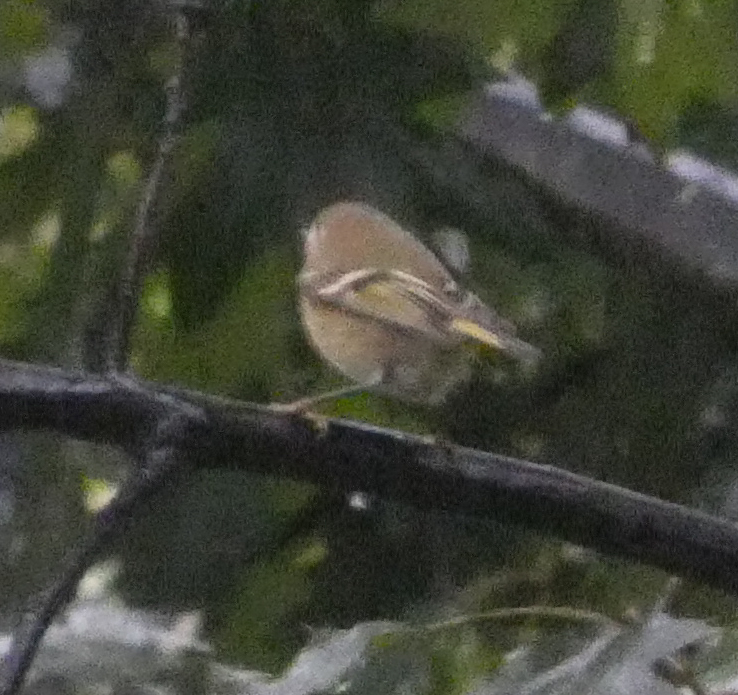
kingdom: Animalia
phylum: Chordata
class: Aves
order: Passeriformes
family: Regulidae
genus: Regulus
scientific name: Regulus calendula
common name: Ruby-crowned kinglet
